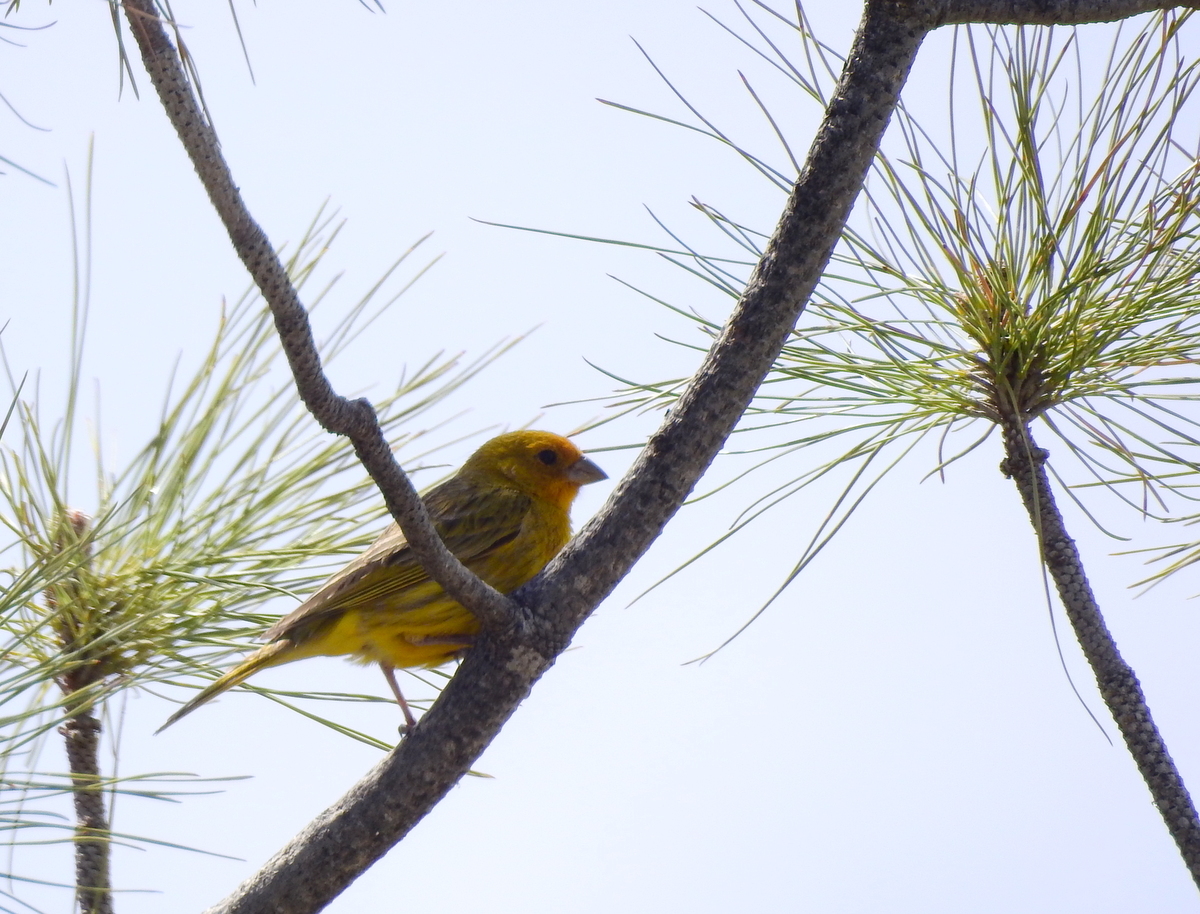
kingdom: Animalia
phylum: Chordata
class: Aves
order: Passeriformes
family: Thraupidae
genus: Sicalis
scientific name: Sicalis flaveola
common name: Saffron finch
